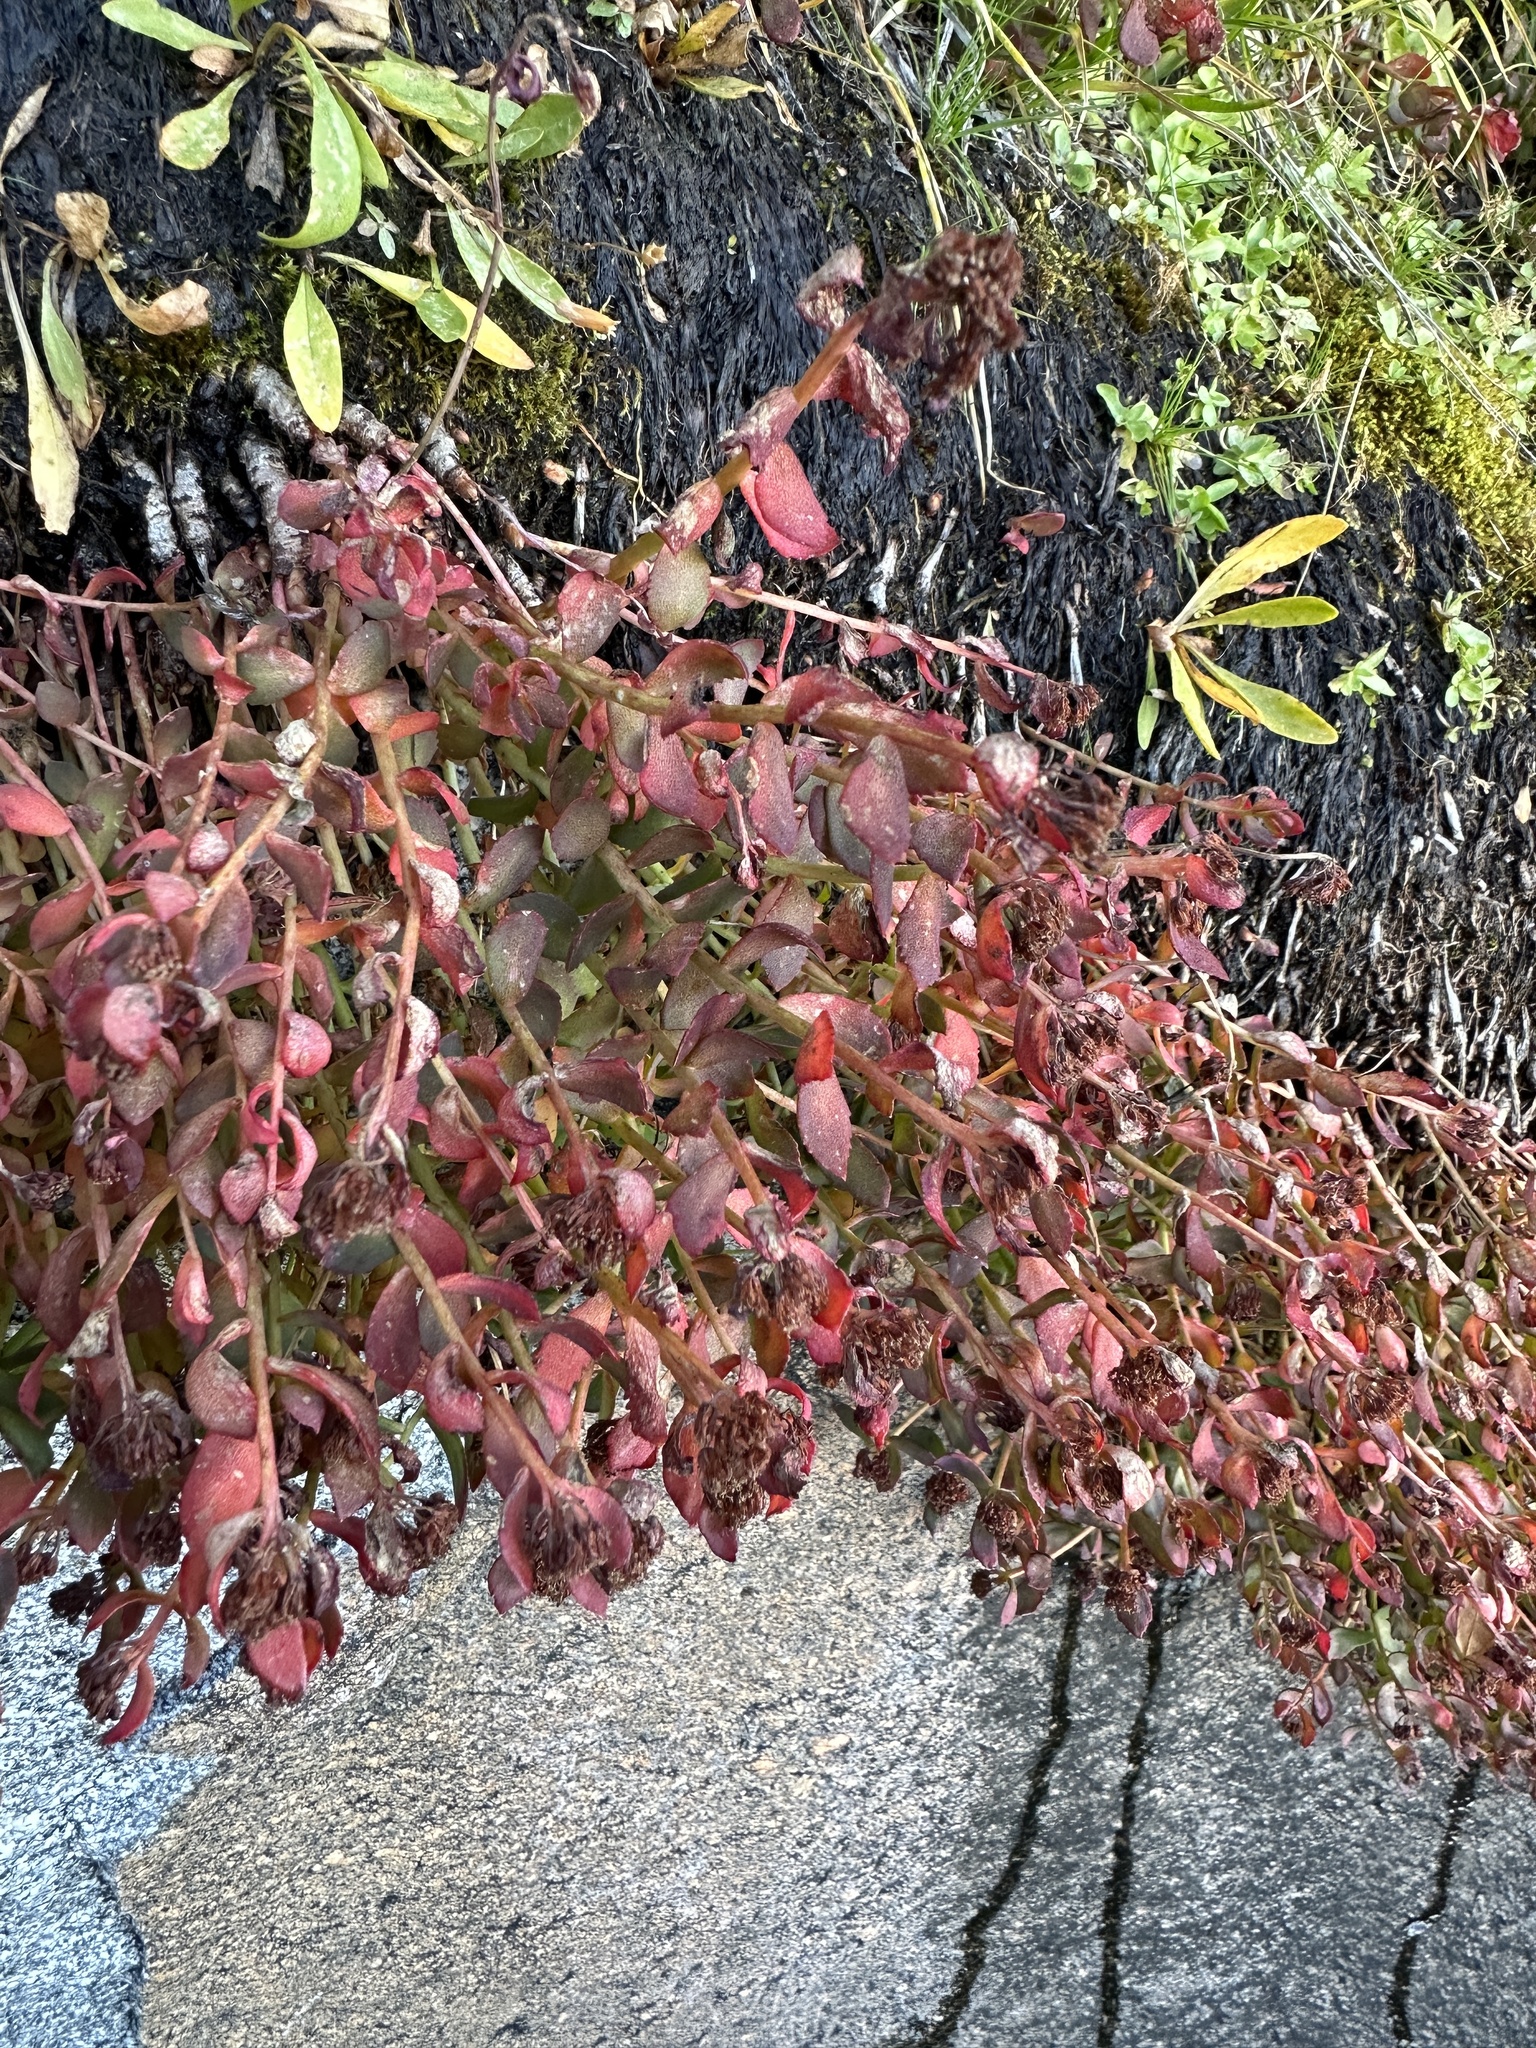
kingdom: Plantae
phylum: Tracheophyta
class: Magnoliopsida
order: Saxifragales
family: Crassulaceae
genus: Rhodiola
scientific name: Rhodiola integrifolia
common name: Western roseroot
